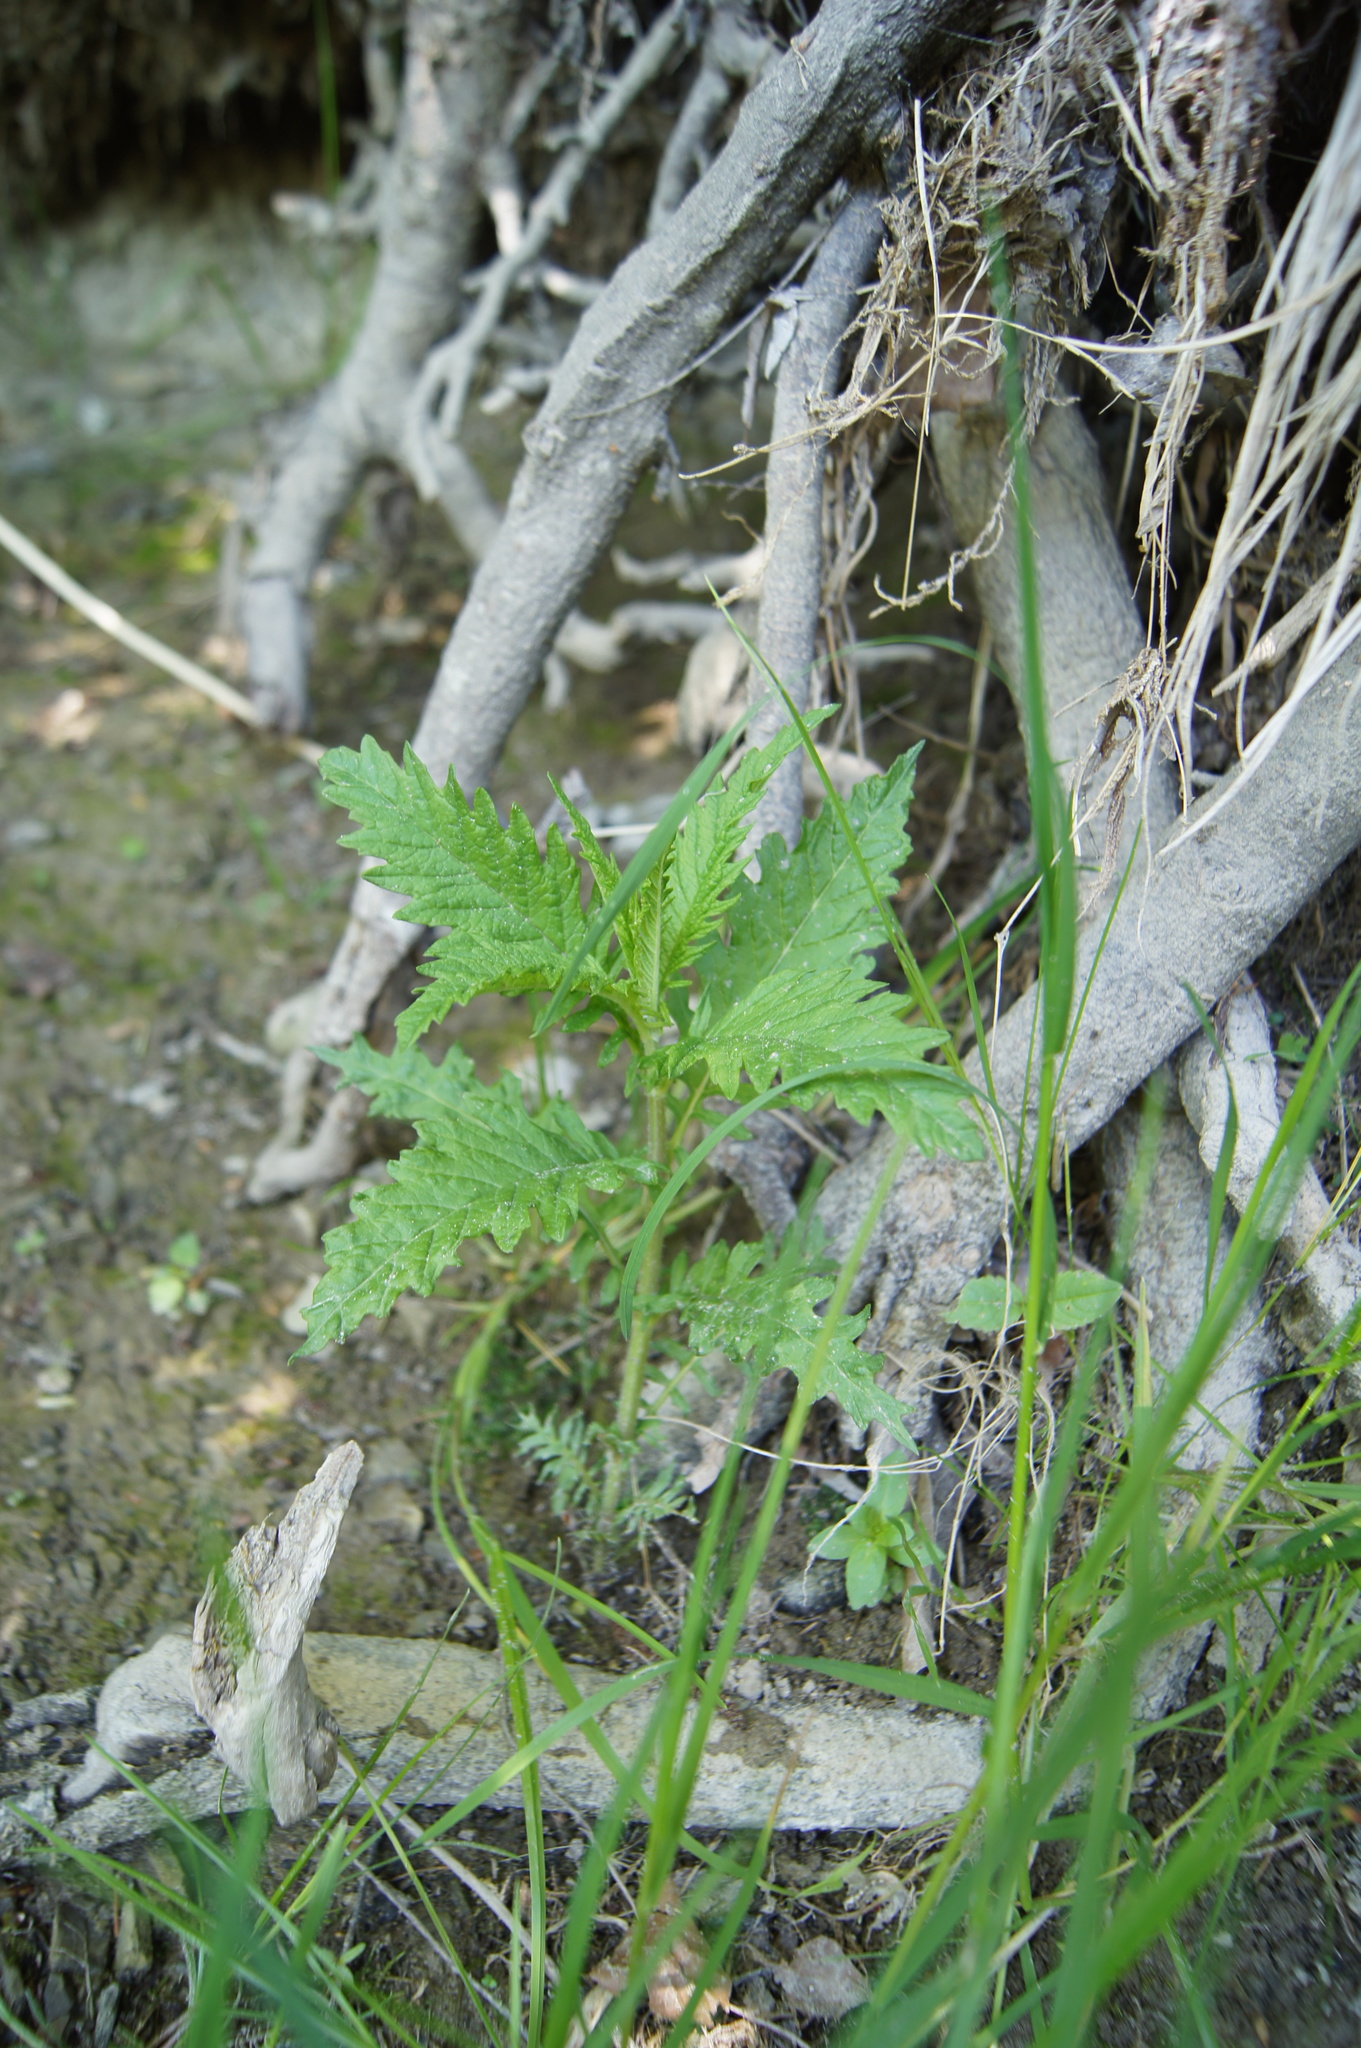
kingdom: Plantae
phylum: Tracheophyta
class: Magnoliopsida
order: Lamiales
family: Lamiaceae
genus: Lycopus
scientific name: Lycopus europaeus
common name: European bugleweed
